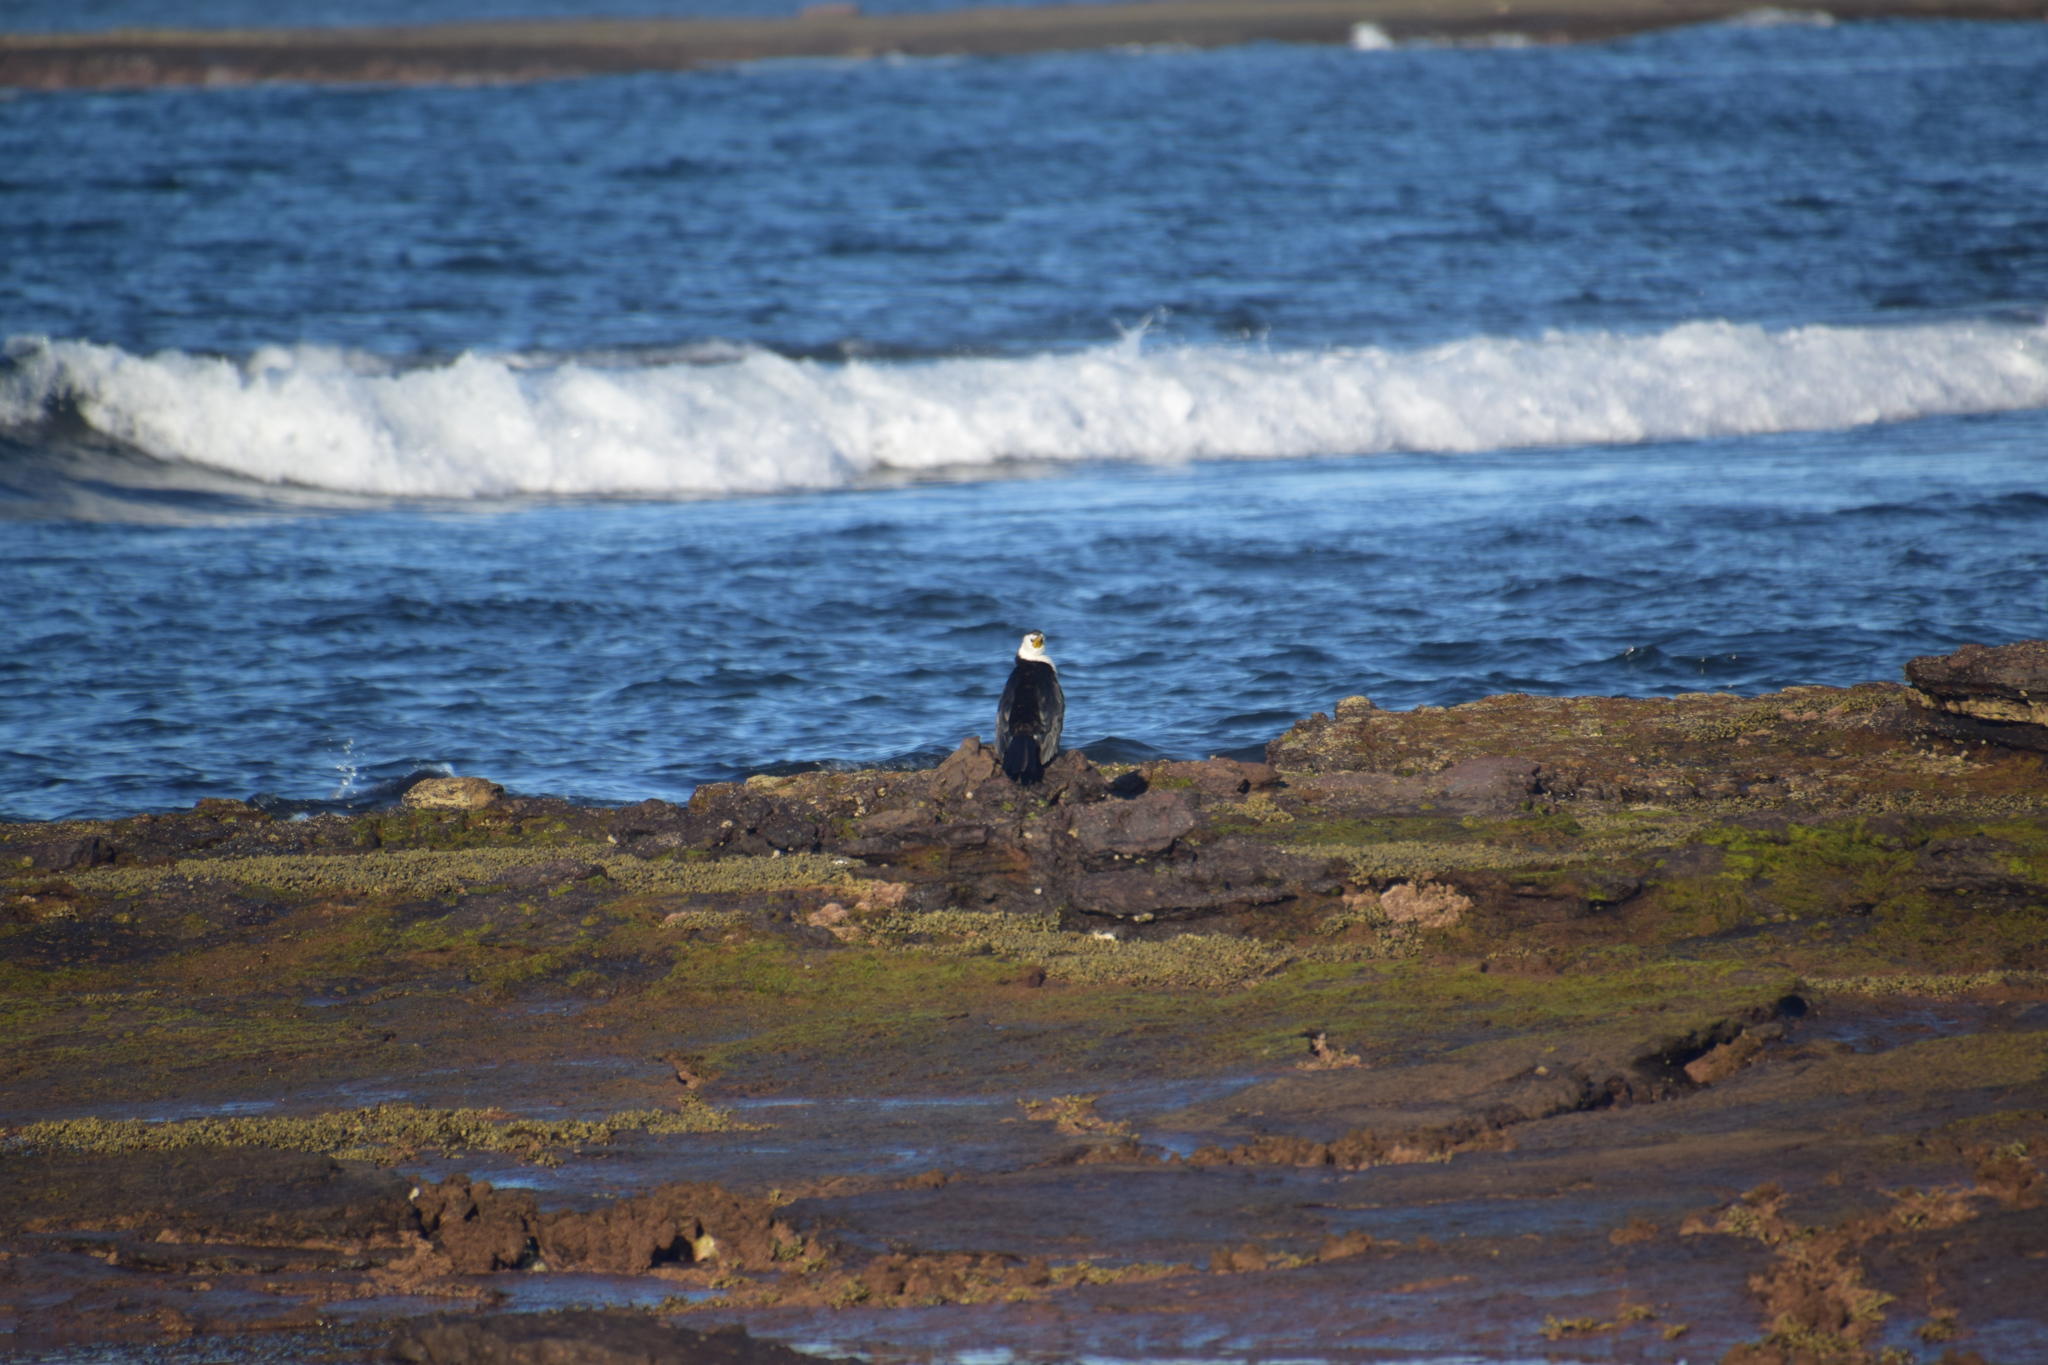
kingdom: Animalia
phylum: Chordata
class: Aves
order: Suliformes
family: Phalacrocoracidae
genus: Microcarbo
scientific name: Microcarbo melanoleucos
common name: Little pied cormorant
